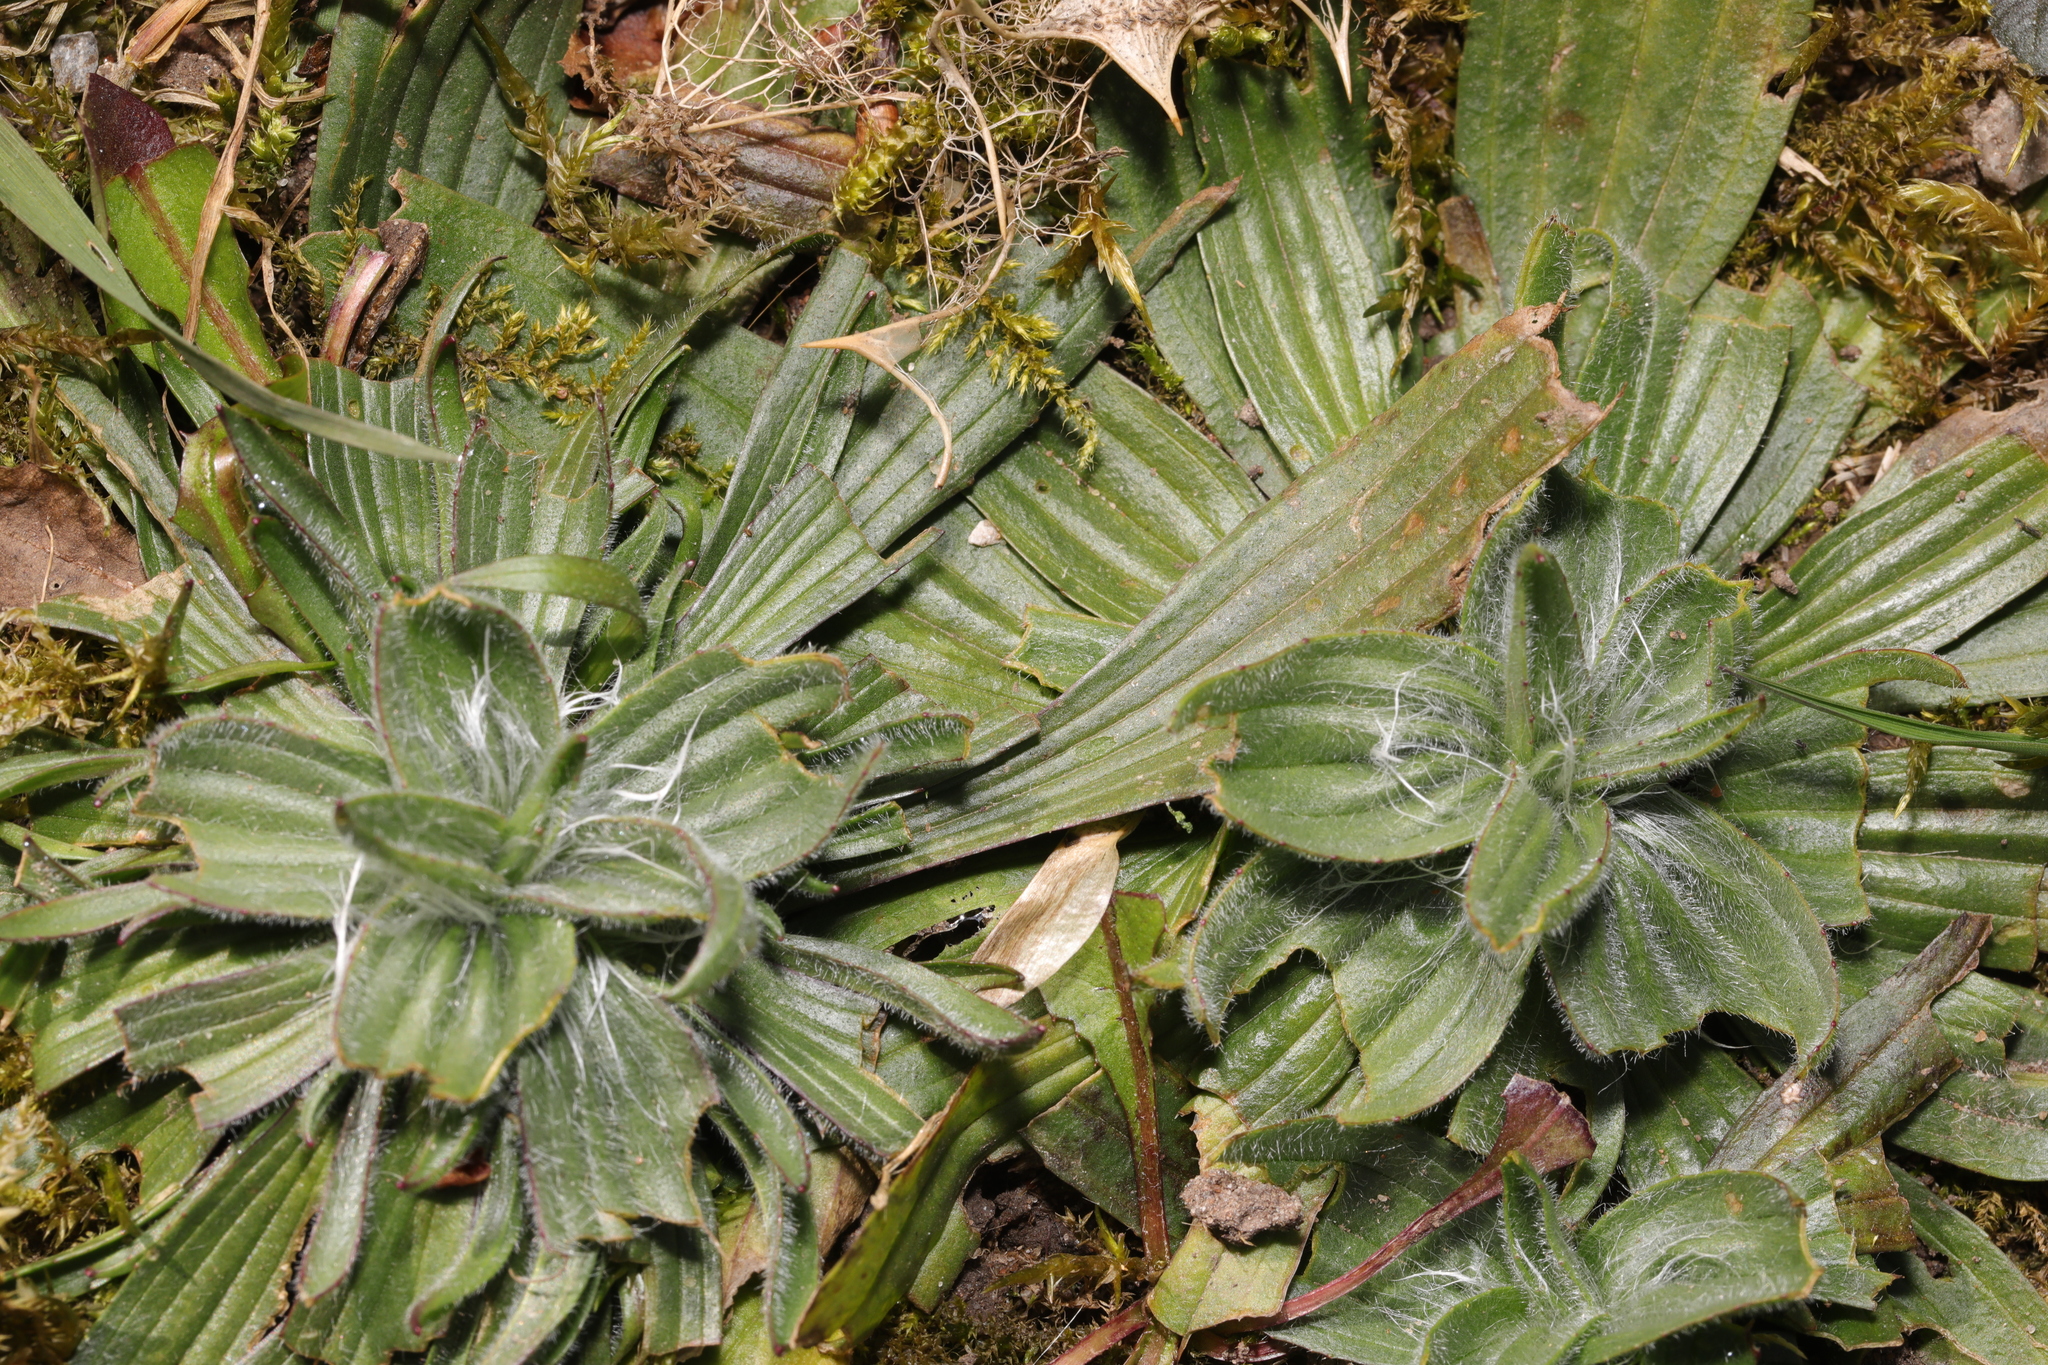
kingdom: Plantae
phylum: Tracheophyta
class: Magnoliopsida
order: Lamiales
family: Plantaginaceae
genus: Plantago
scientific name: Plantago lanceolata
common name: Ribwort plantain
